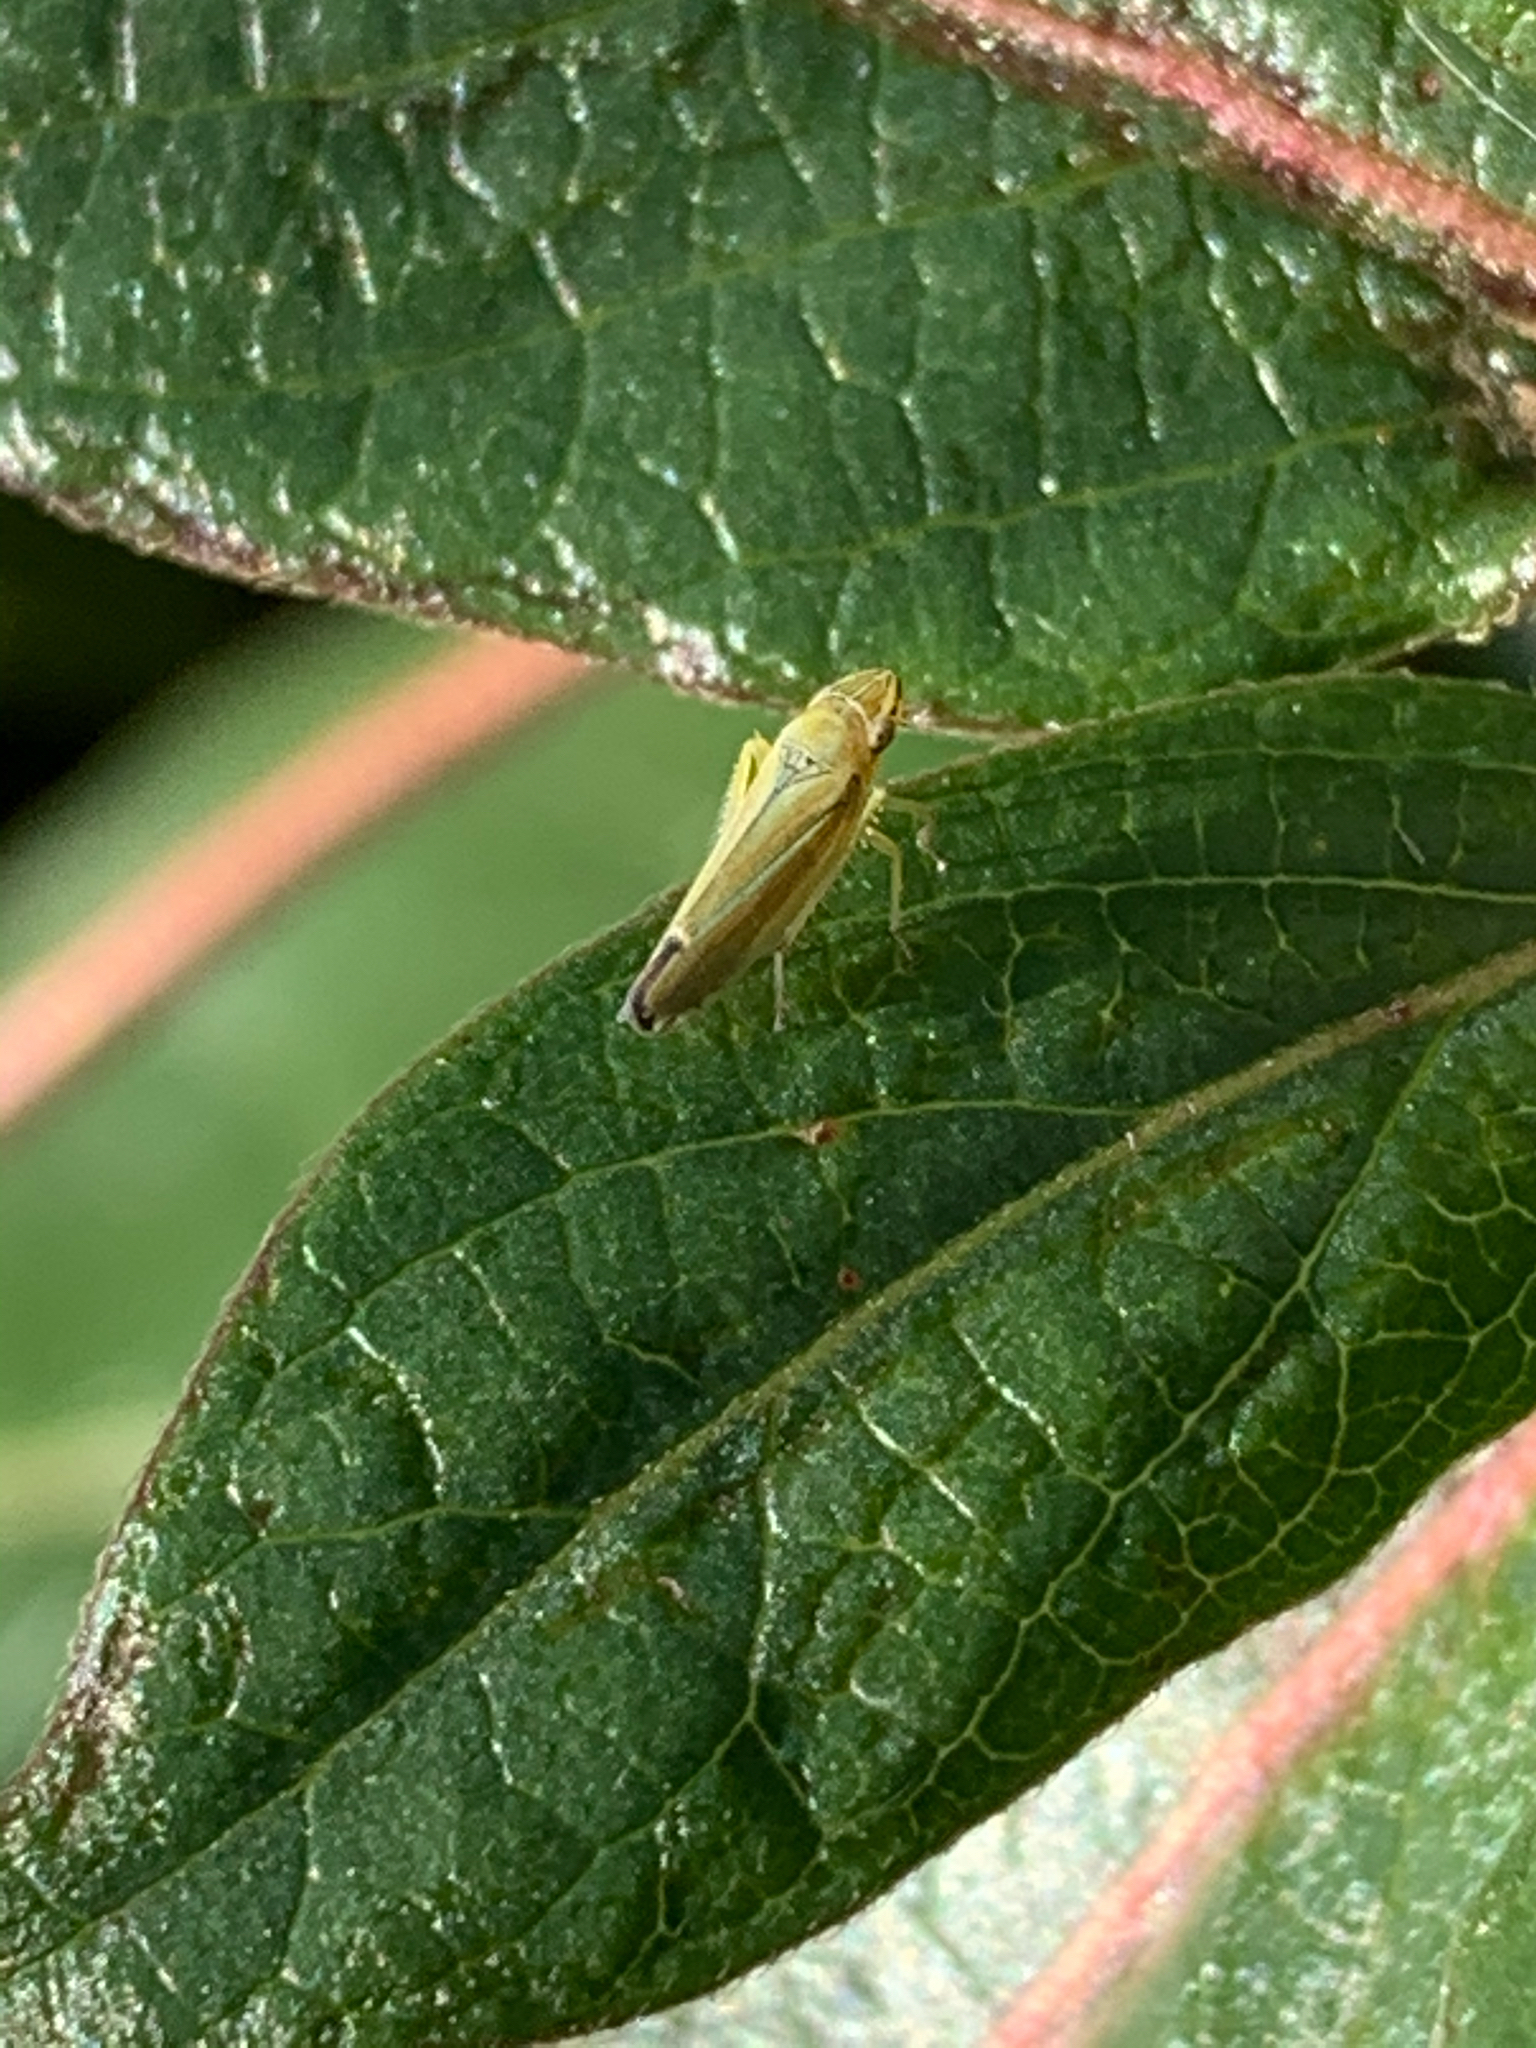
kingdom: Animalia
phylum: Arthropoda
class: Insecta
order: Hemiptera
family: Cicadellidae
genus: Graphocephala
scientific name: Graphocephala versuta
